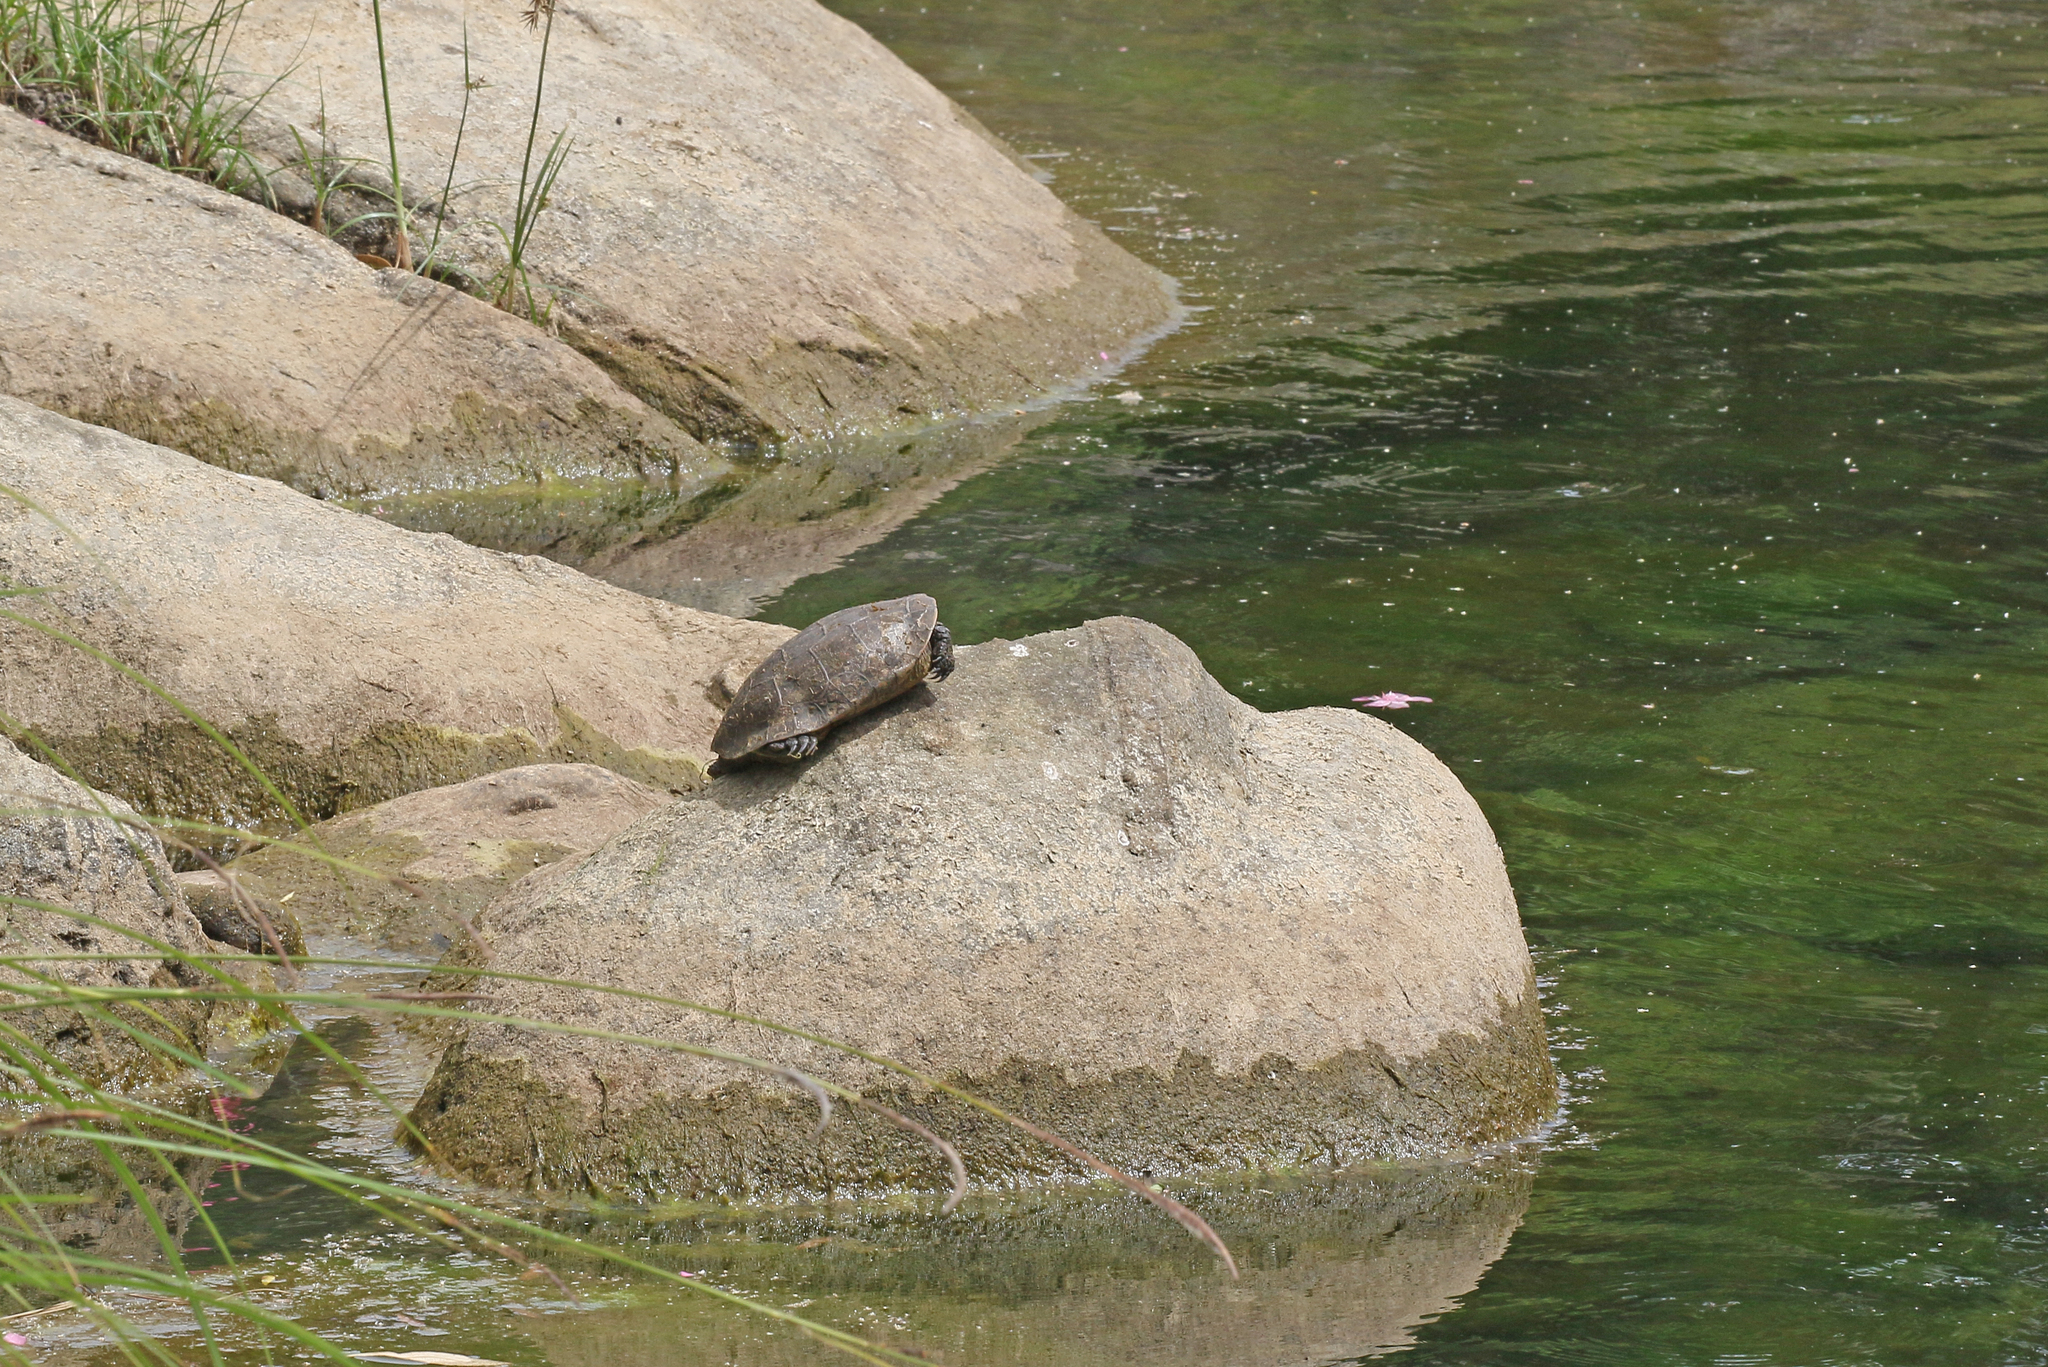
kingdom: Animalia
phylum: Chordata
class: Testudines
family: Geoemydidae
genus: Mauremys
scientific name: Mauremys leprosa
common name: Mediterranean pond turtle
